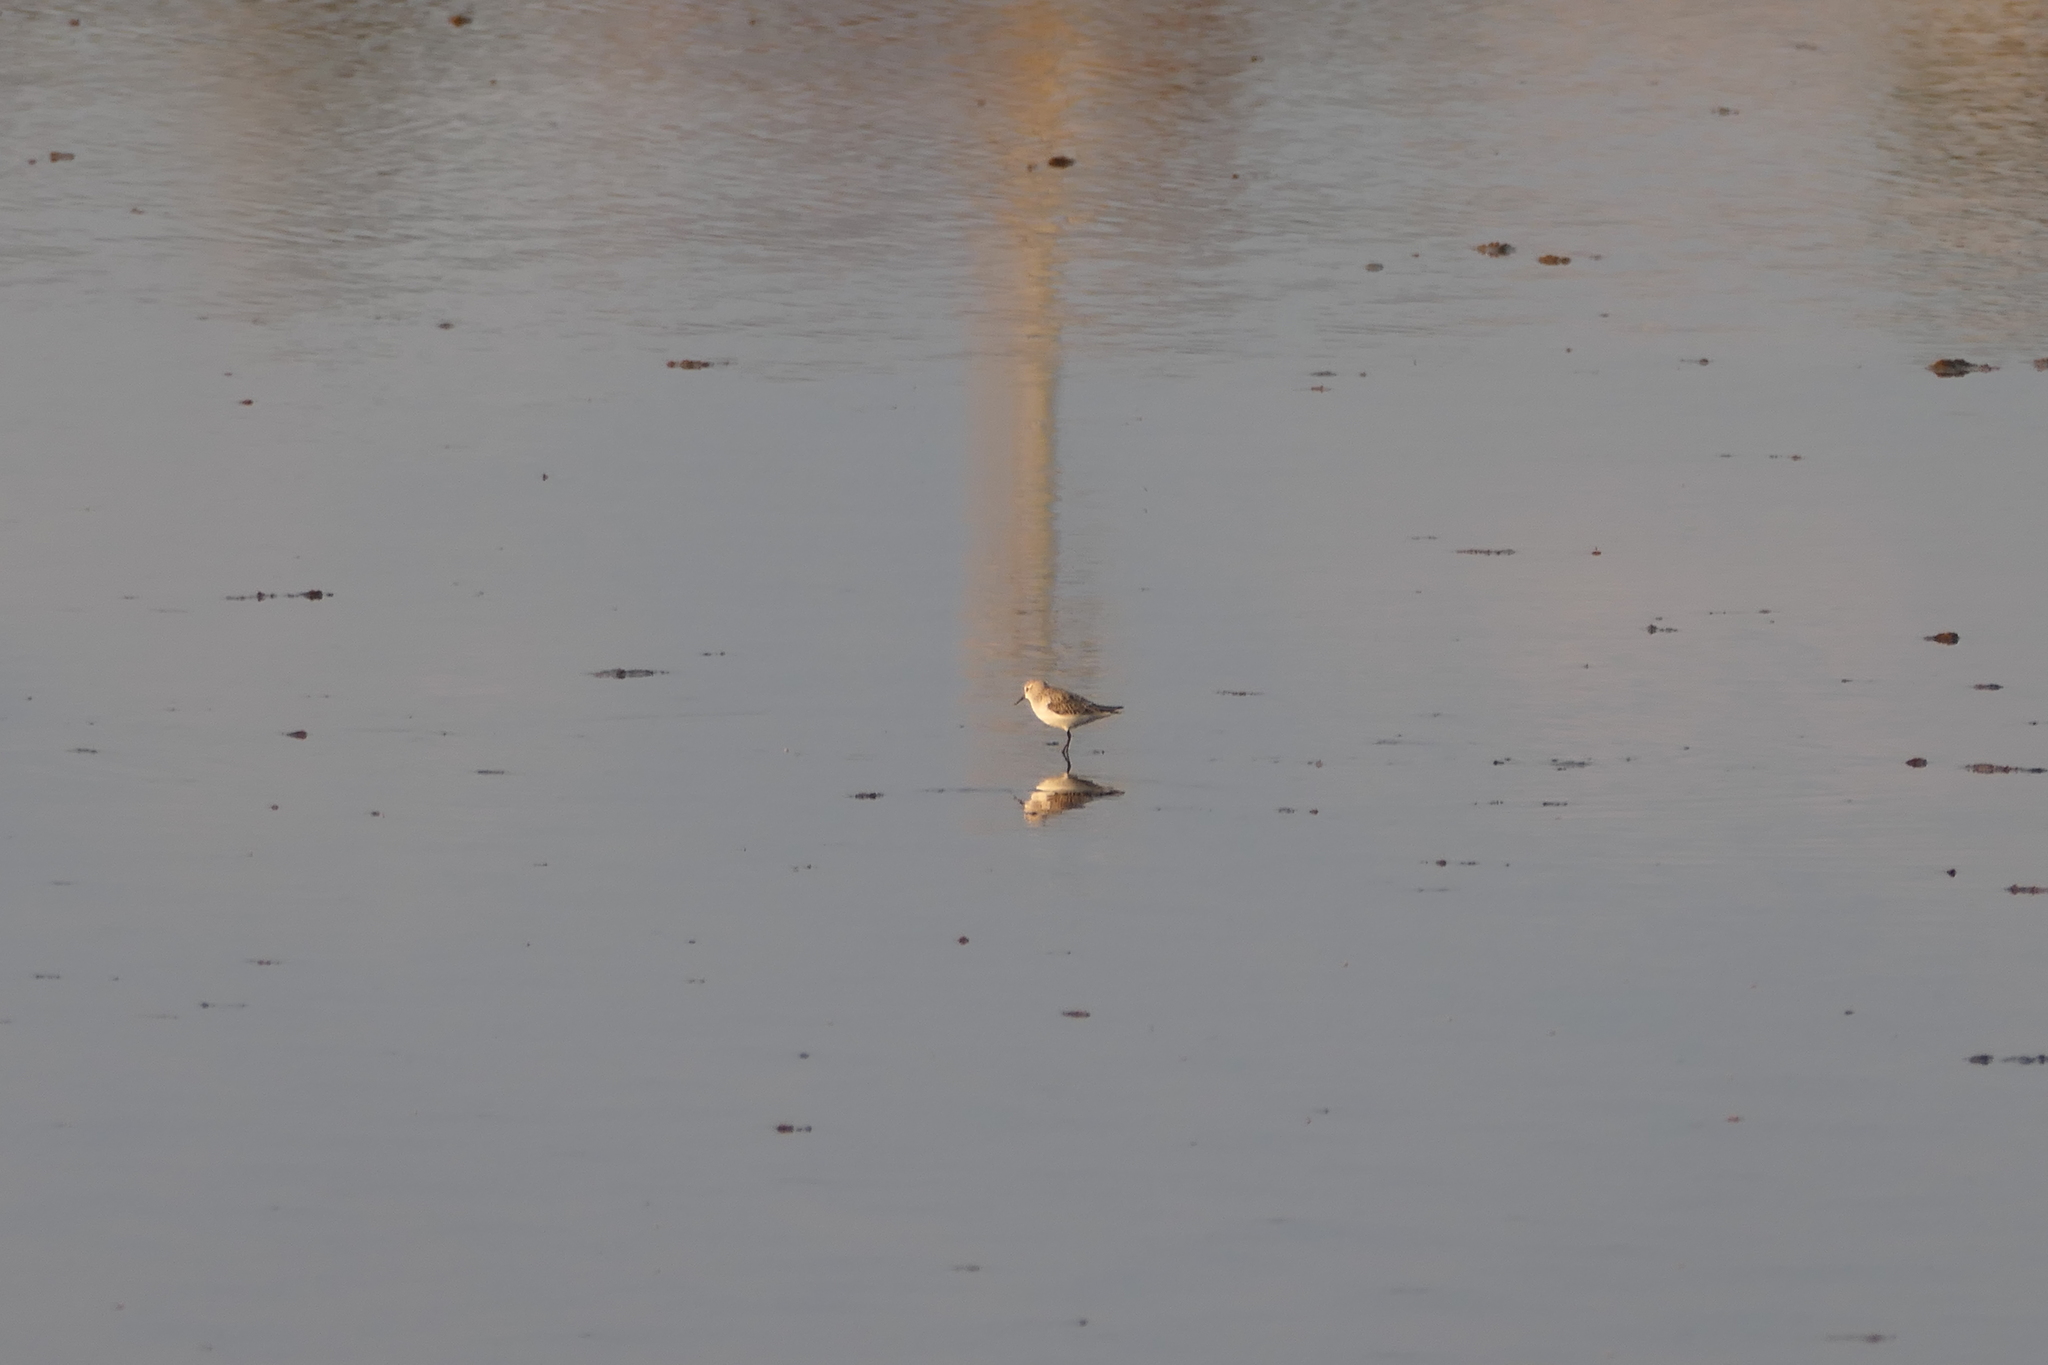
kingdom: Animalia
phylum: Chordata
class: Aves
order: Charadriiformes
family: Scolopacidae
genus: Calidris
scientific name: Calidris minuta
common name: Little stint
